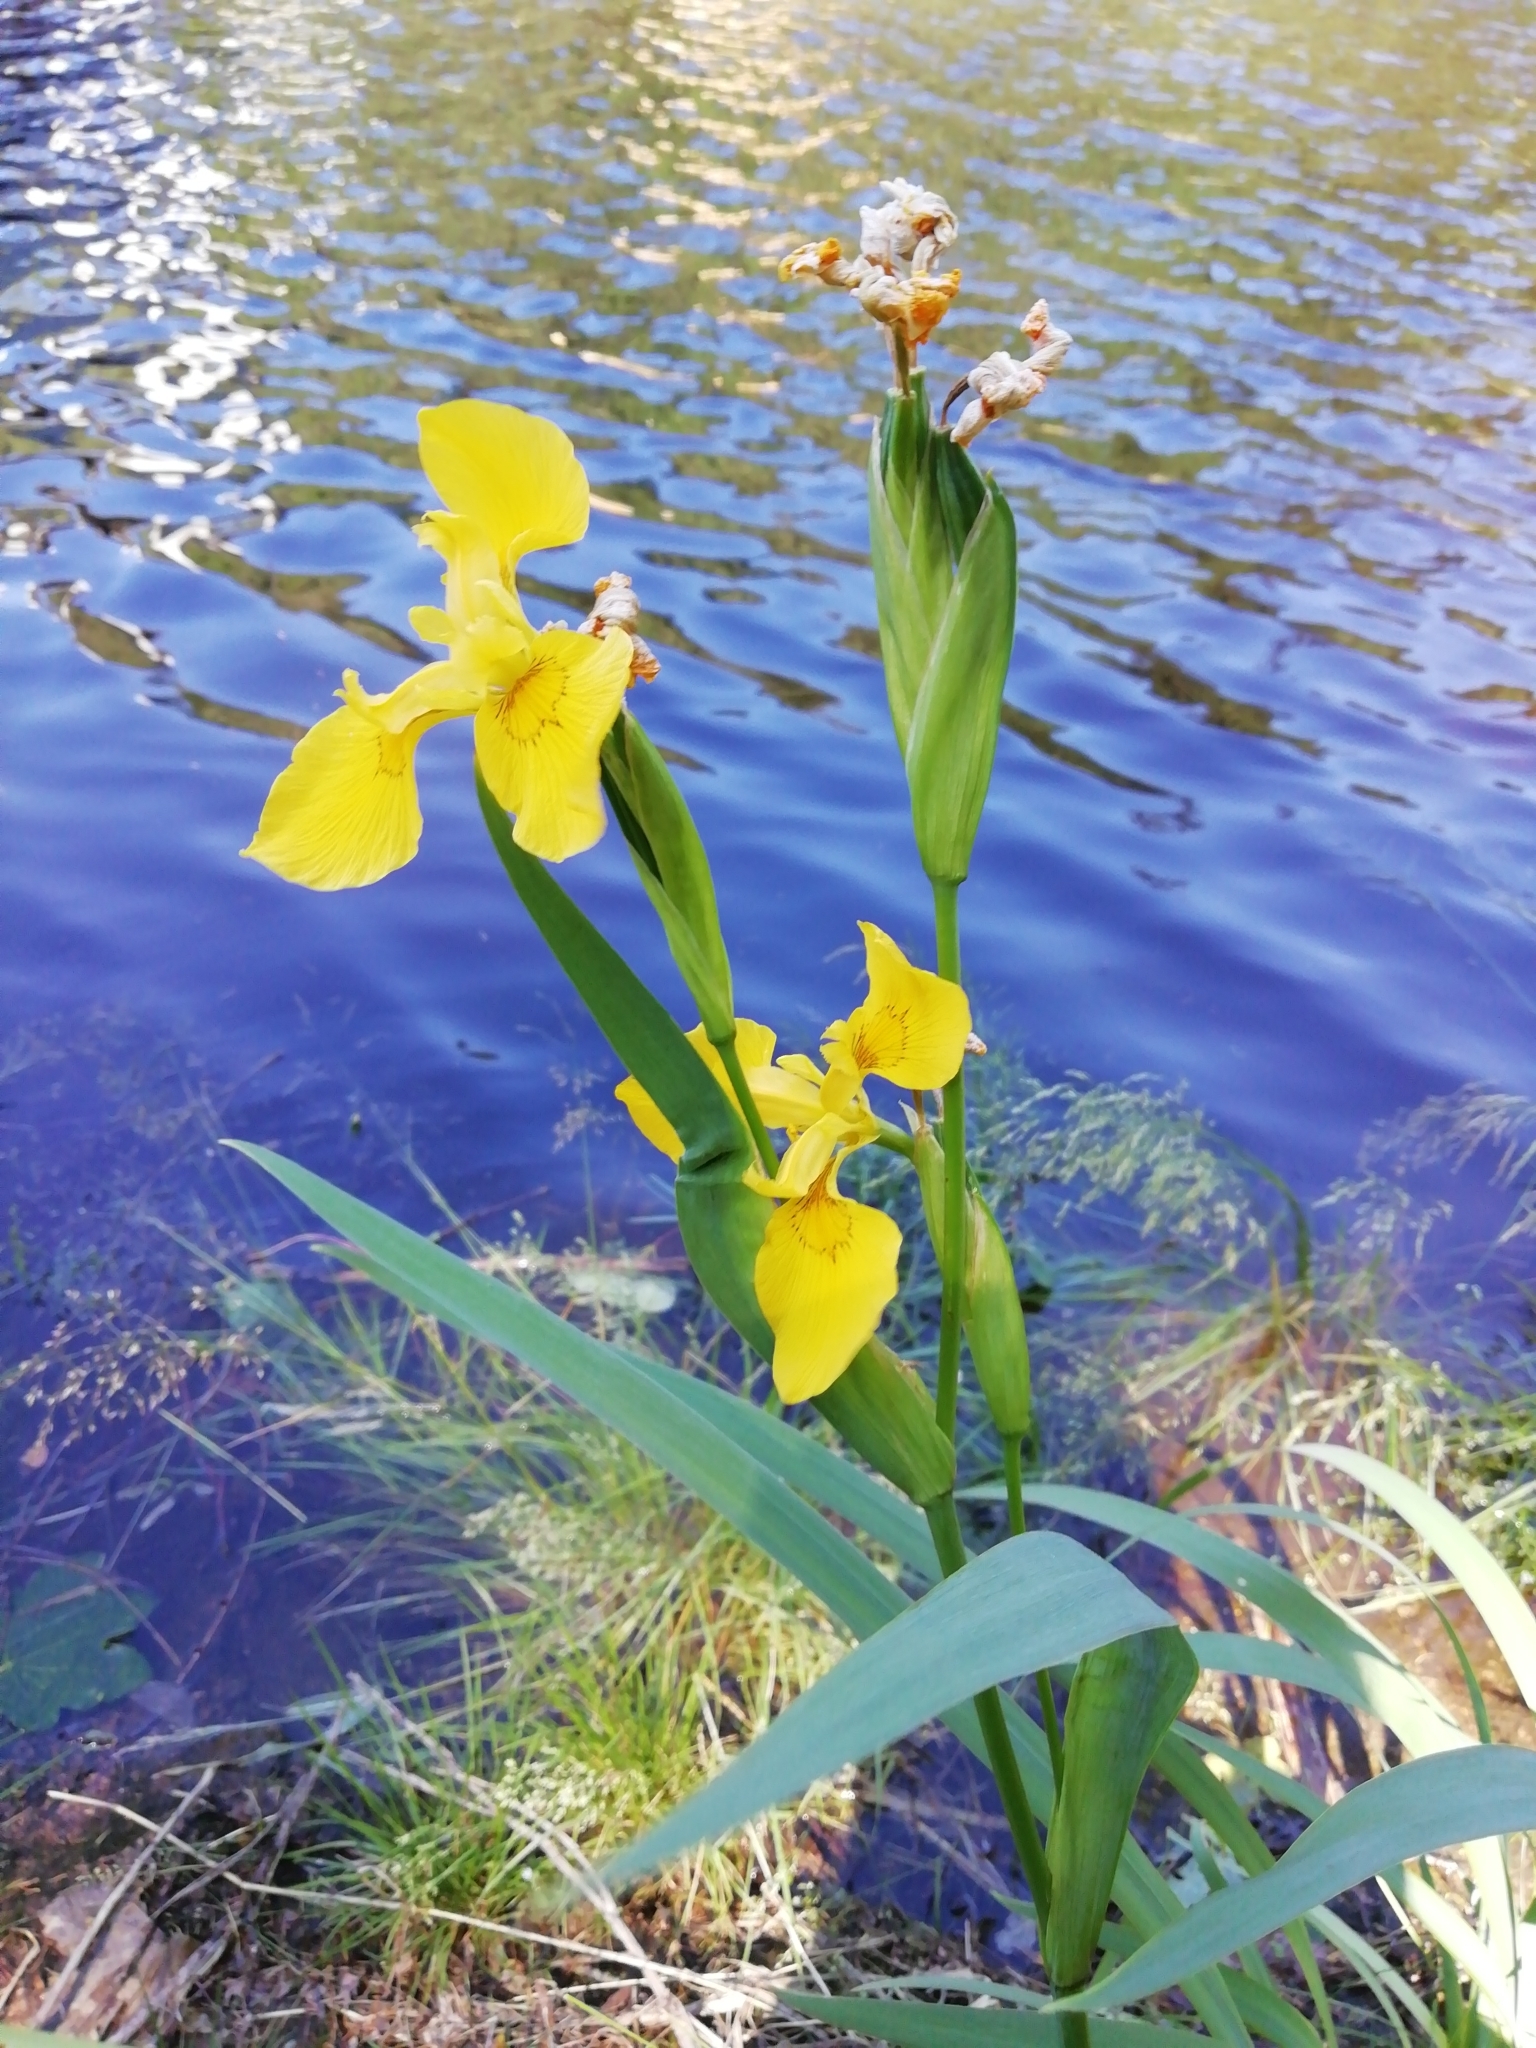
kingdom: Plantae
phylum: Tracheophyta
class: Liliopsida
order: Asparagales
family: Iridaceae
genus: Iris
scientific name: Iris pseudacorus
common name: Yellow flag
